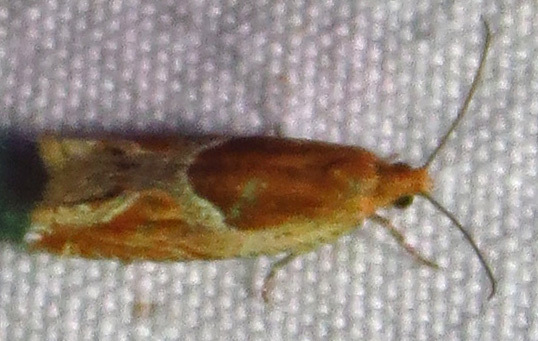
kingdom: Animalia
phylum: Arthropoda
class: Insecta
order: Lepidoptera
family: Tortricidae
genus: Ancylis
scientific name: Ancylis comptana
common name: Little roller
